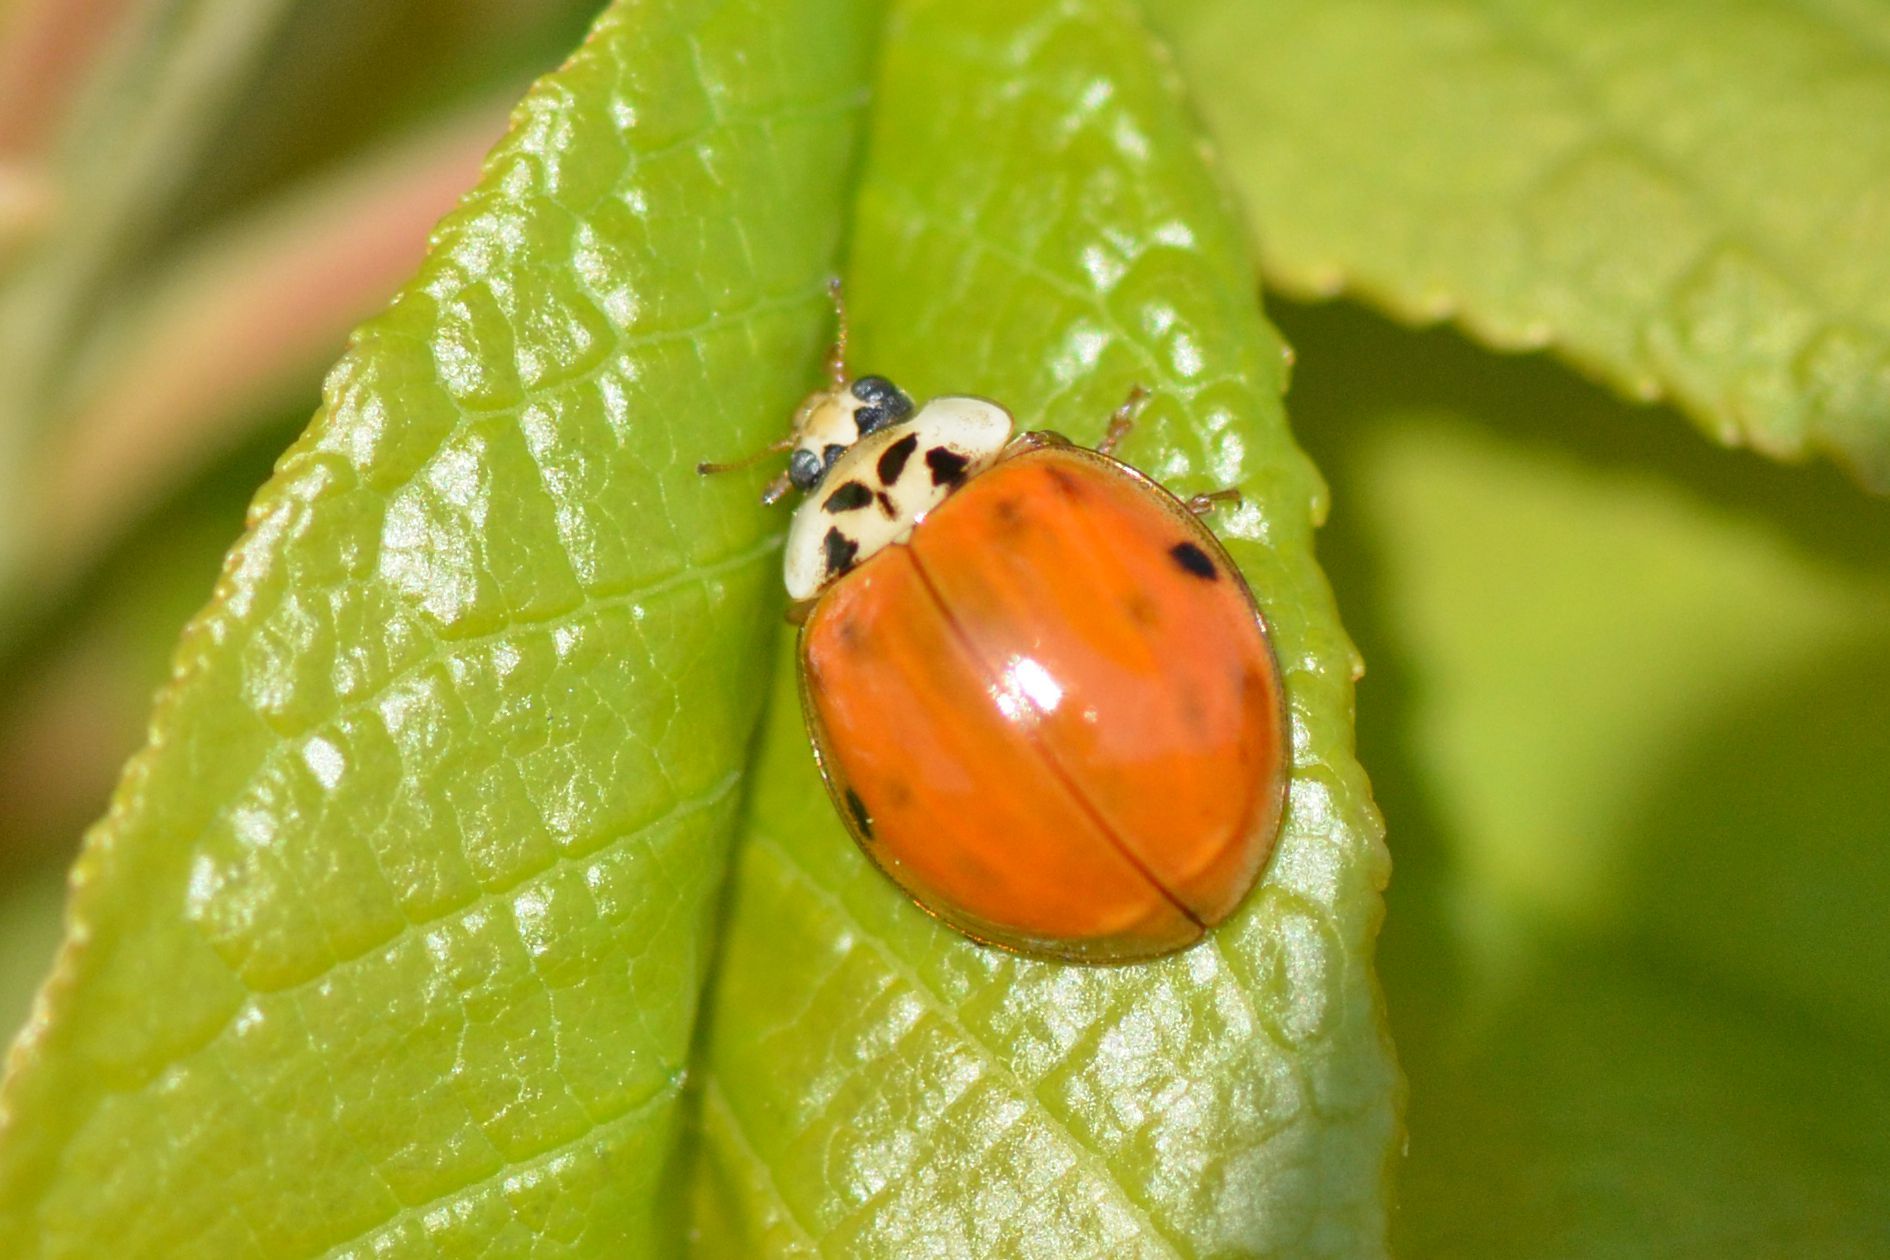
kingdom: Animalia
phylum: Arthropoda
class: Insecta
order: Coleoptera
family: Coccinellidae
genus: Harmonia
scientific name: Harmonia axyridis
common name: Harlequin ladybird
